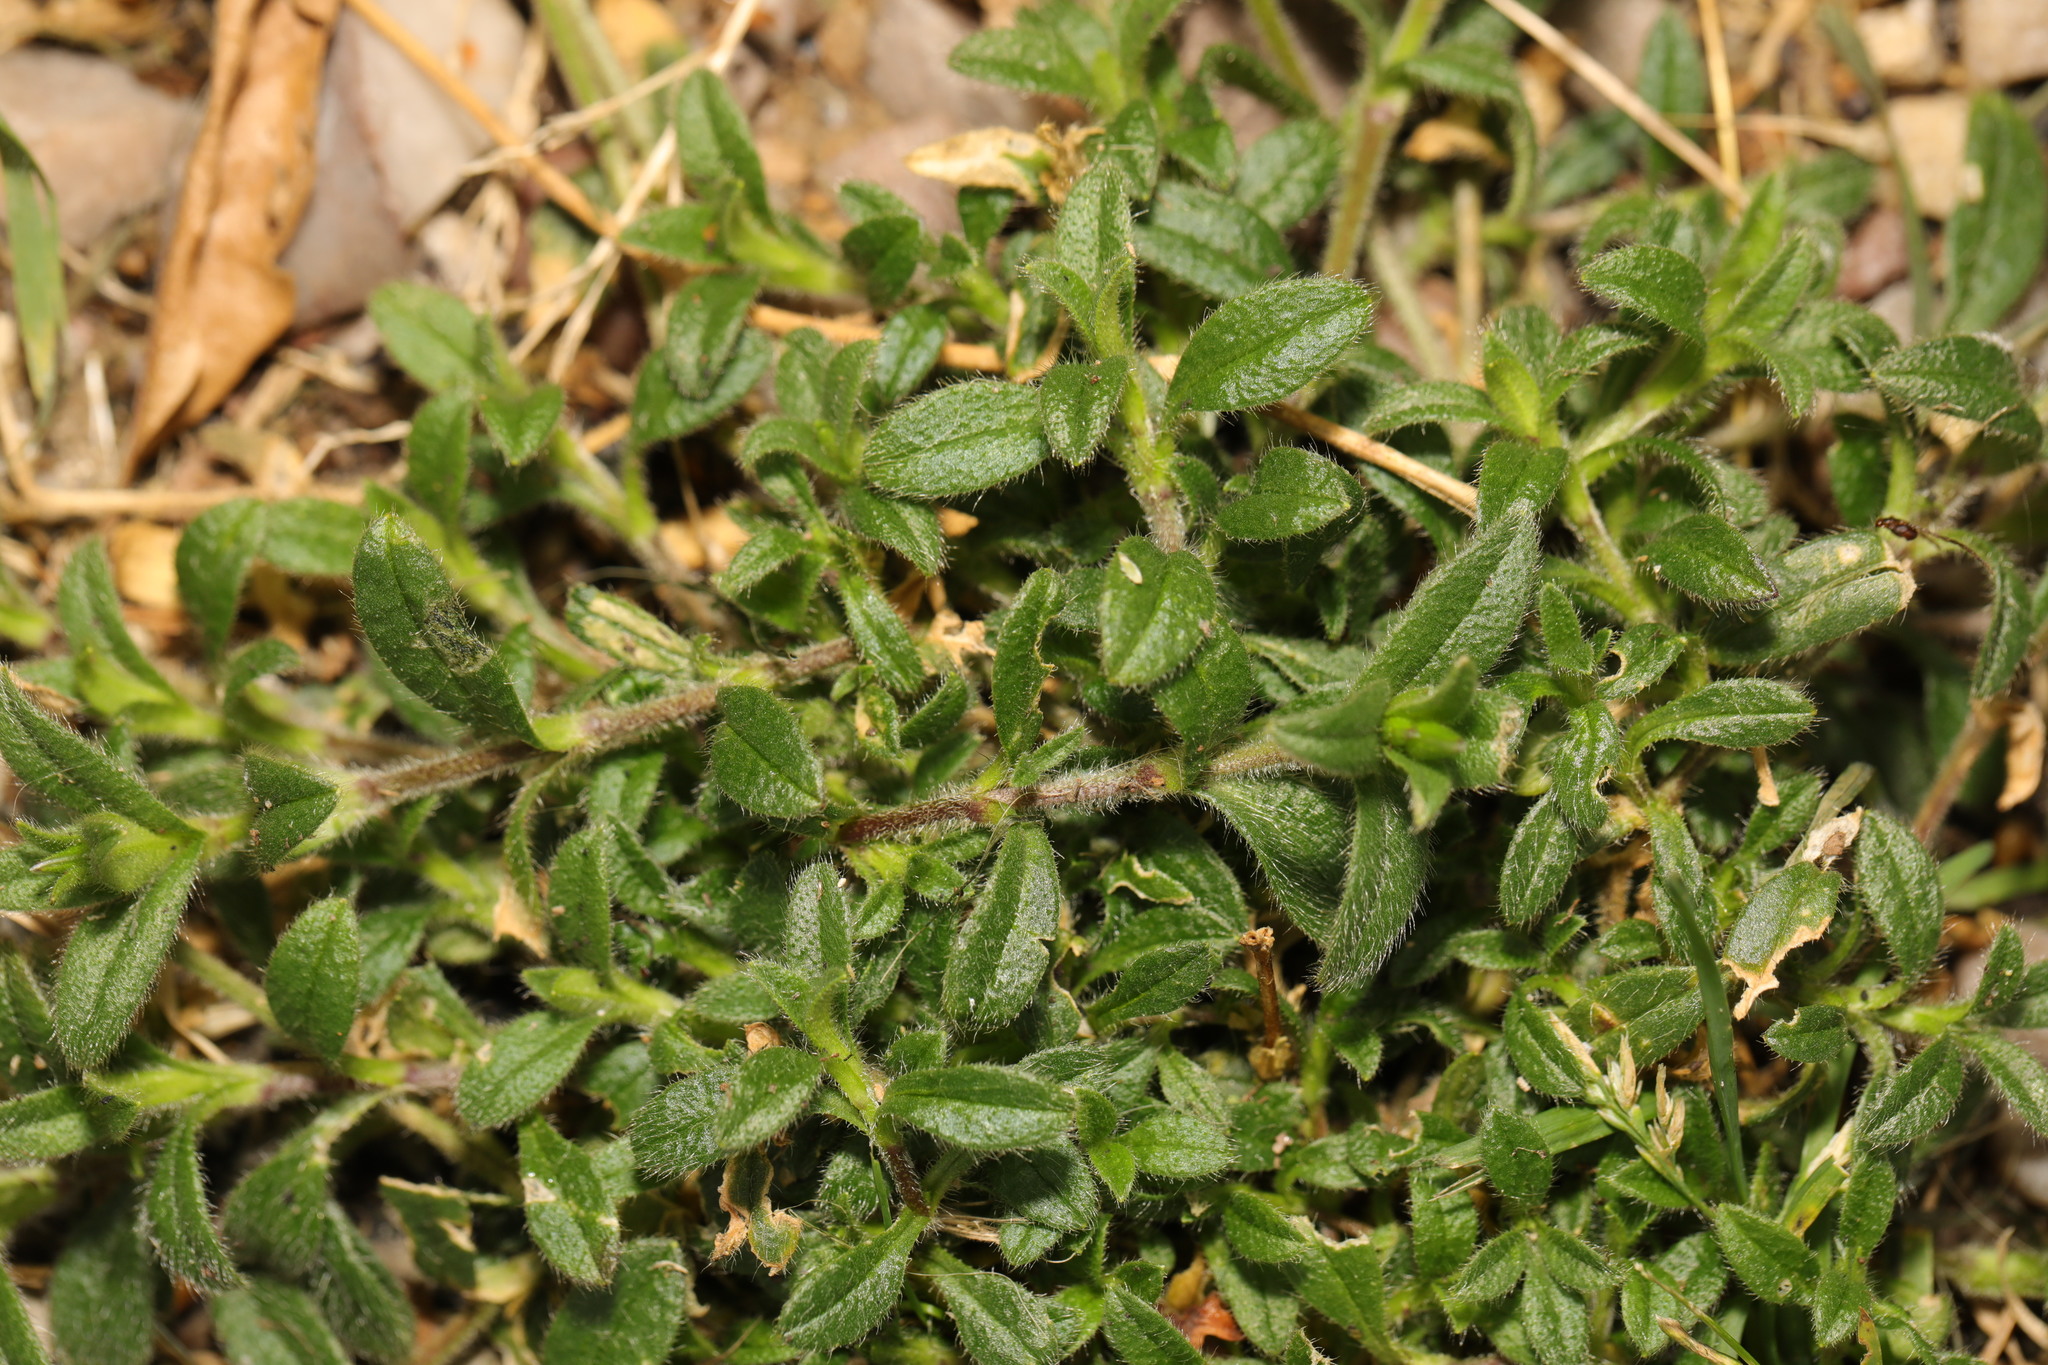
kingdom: Plantae
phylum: Tracheophyta
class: Magnoliopsida
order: Caryophyllales
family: Caryophyllaceae
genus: Cerastium
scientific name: Cerastium fontanum
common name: Common mouse-ear
